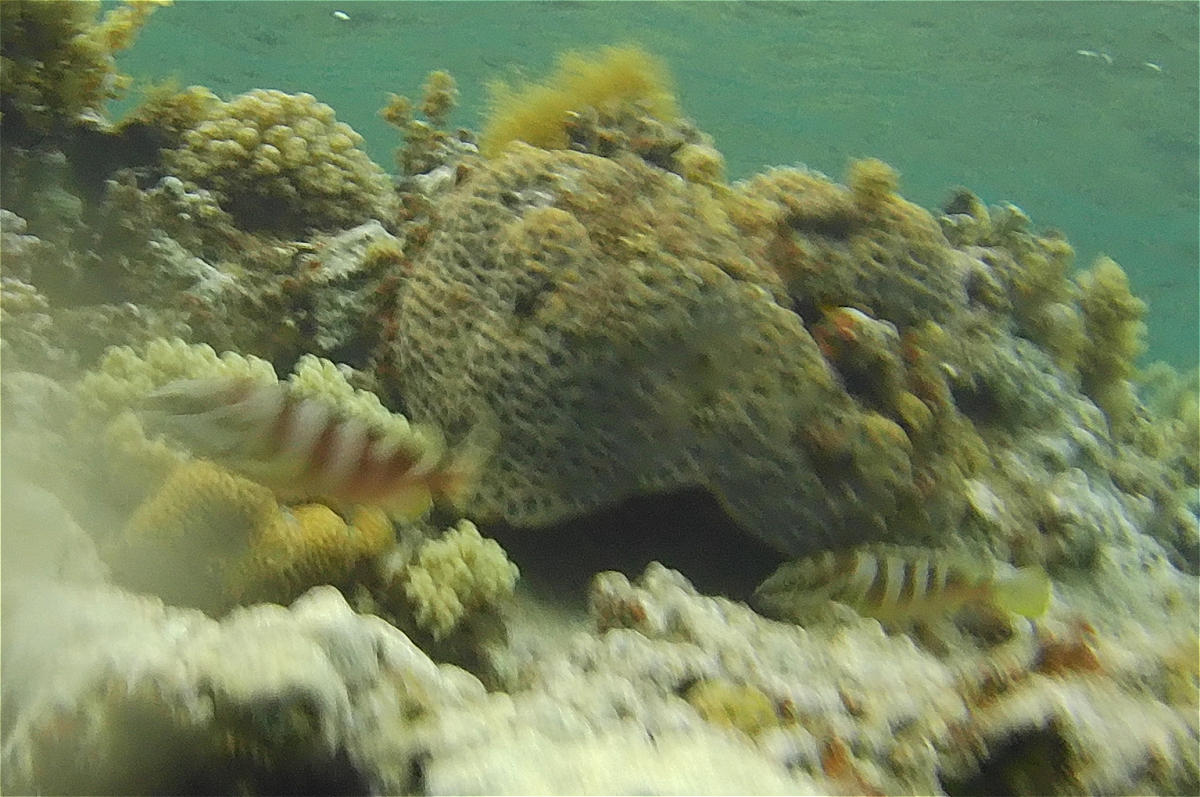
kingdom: Animalia
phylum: Chordata
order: Perciformes
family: Serranidae
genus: Epinephelus
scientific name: Epinephelus fasciatus
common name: Blacktip grouper
